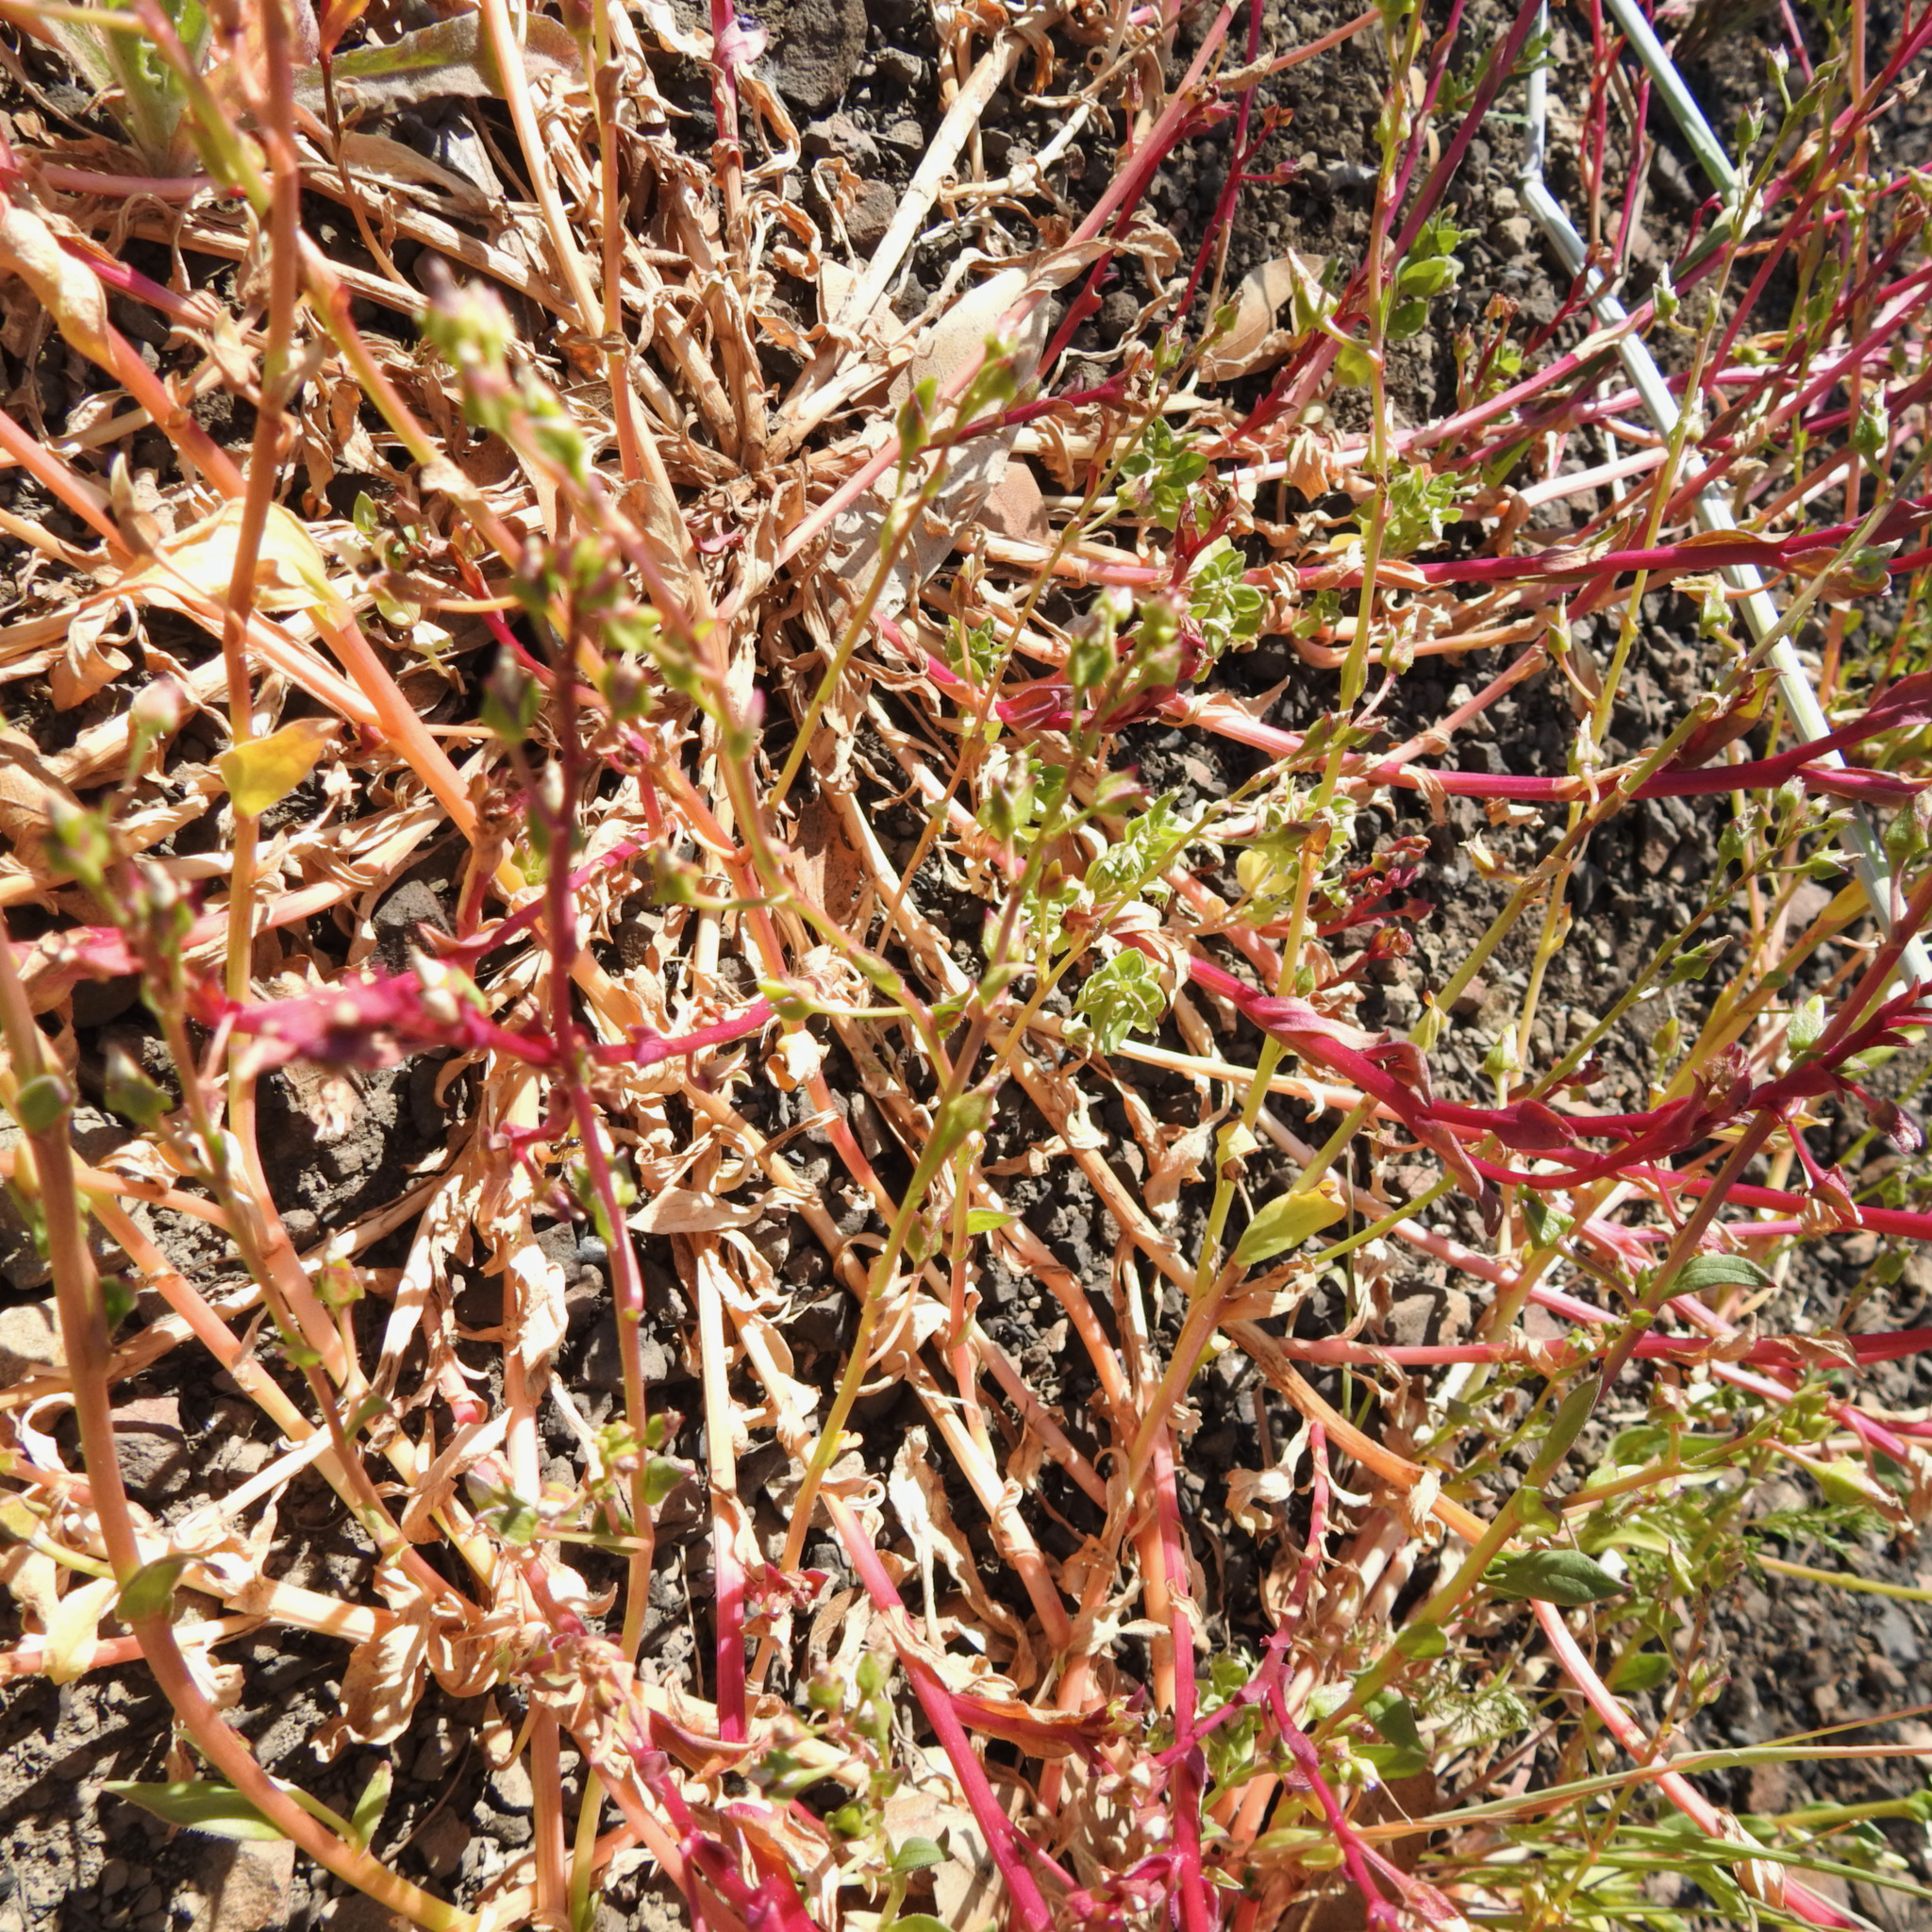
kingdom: Plantae
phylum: Tracheophyta
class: Magnoliopsida
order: Caryophyllales
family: Montiaceae
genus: Calandrinia
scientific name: Calandrinia breweri
